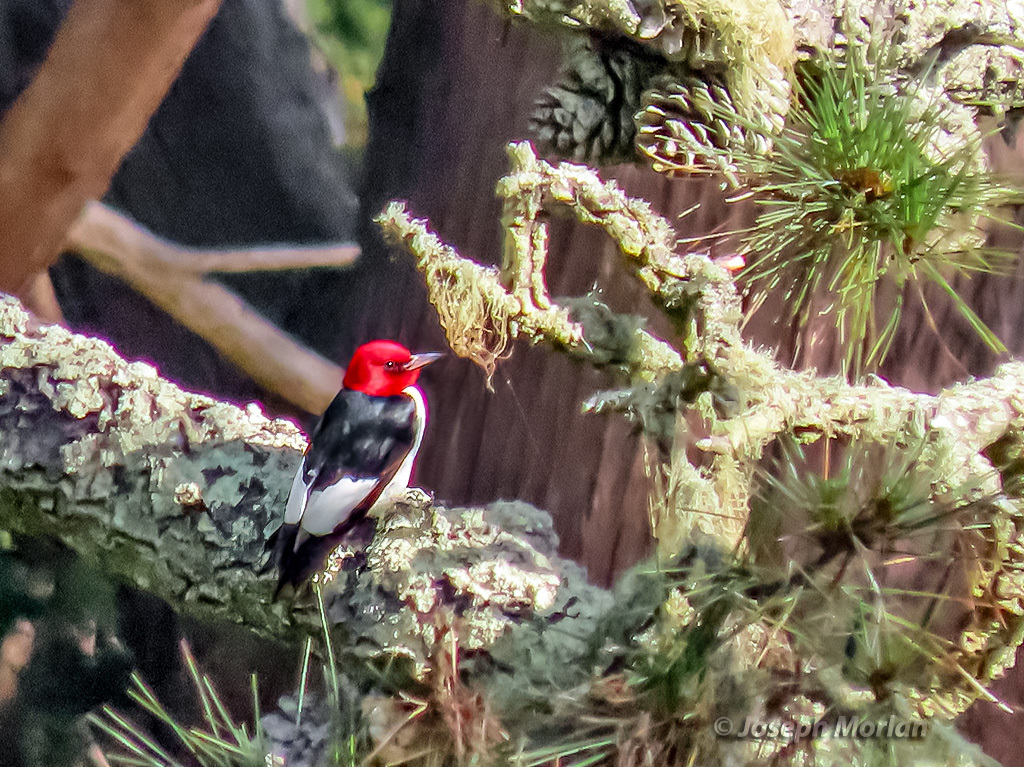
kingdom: Animalia
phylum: Chordata
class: Aves
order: Piciformes
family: Picidae
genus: Melanerpes
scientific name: Melanerpes erythrocephalus
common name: Red-headed woodpecker
